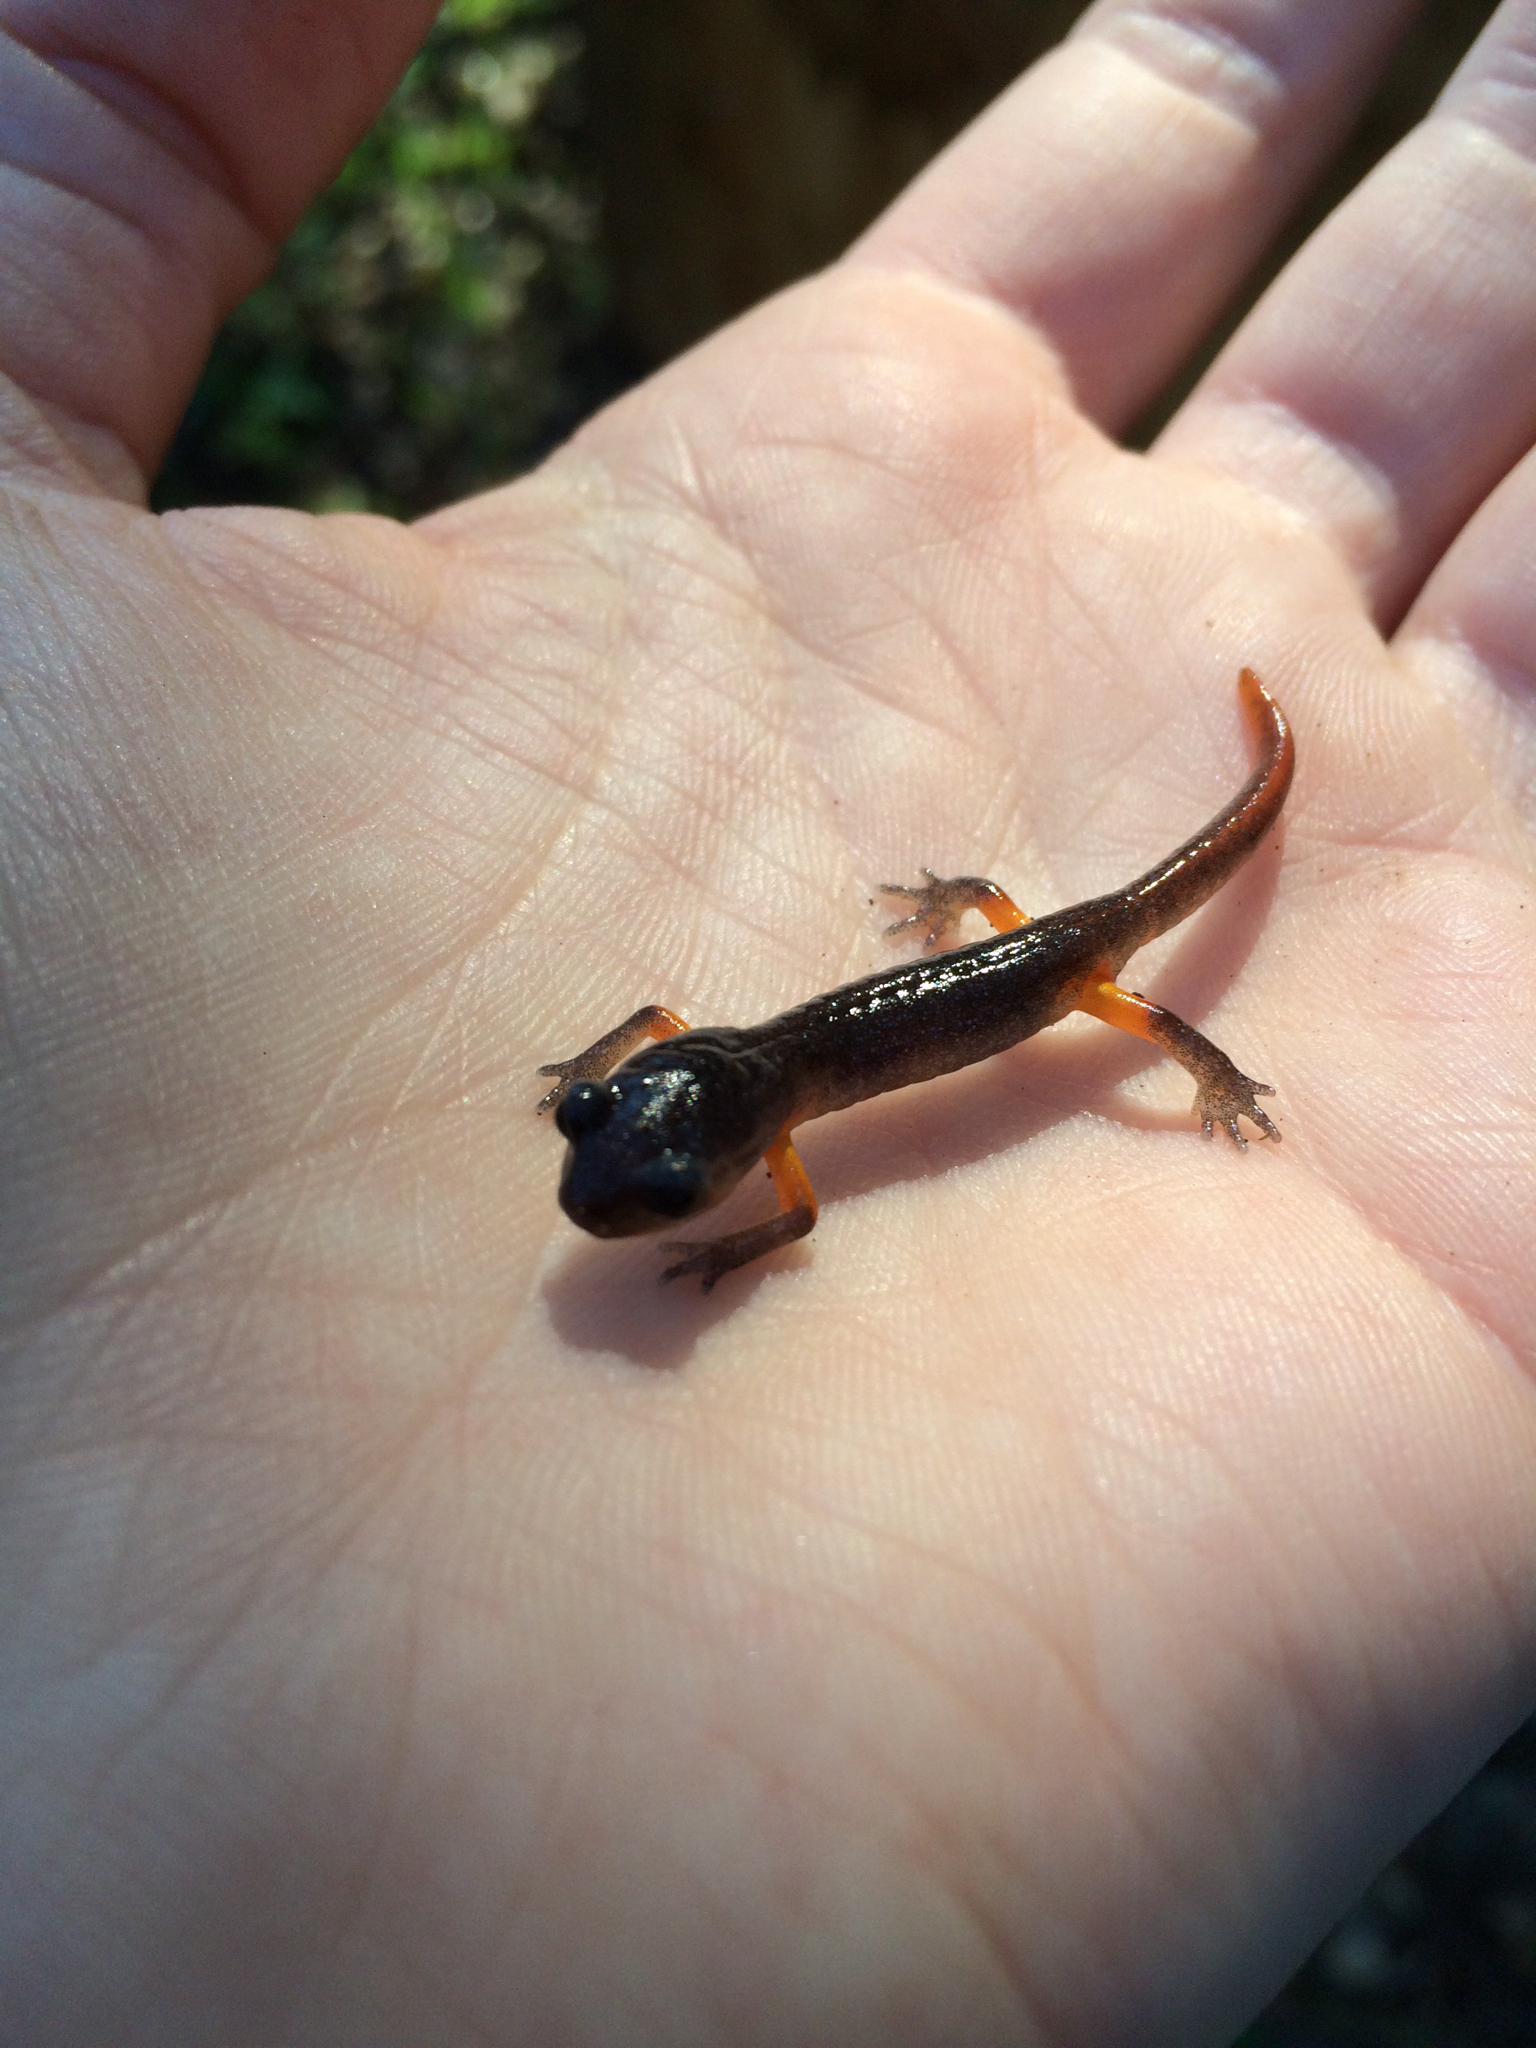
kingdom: Animalia
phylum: Chordata
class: Amphibia
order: Caudata
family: Plethodontidae
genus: Ensatina
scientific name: Ensatina eschscholtzii
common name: Ensatina
